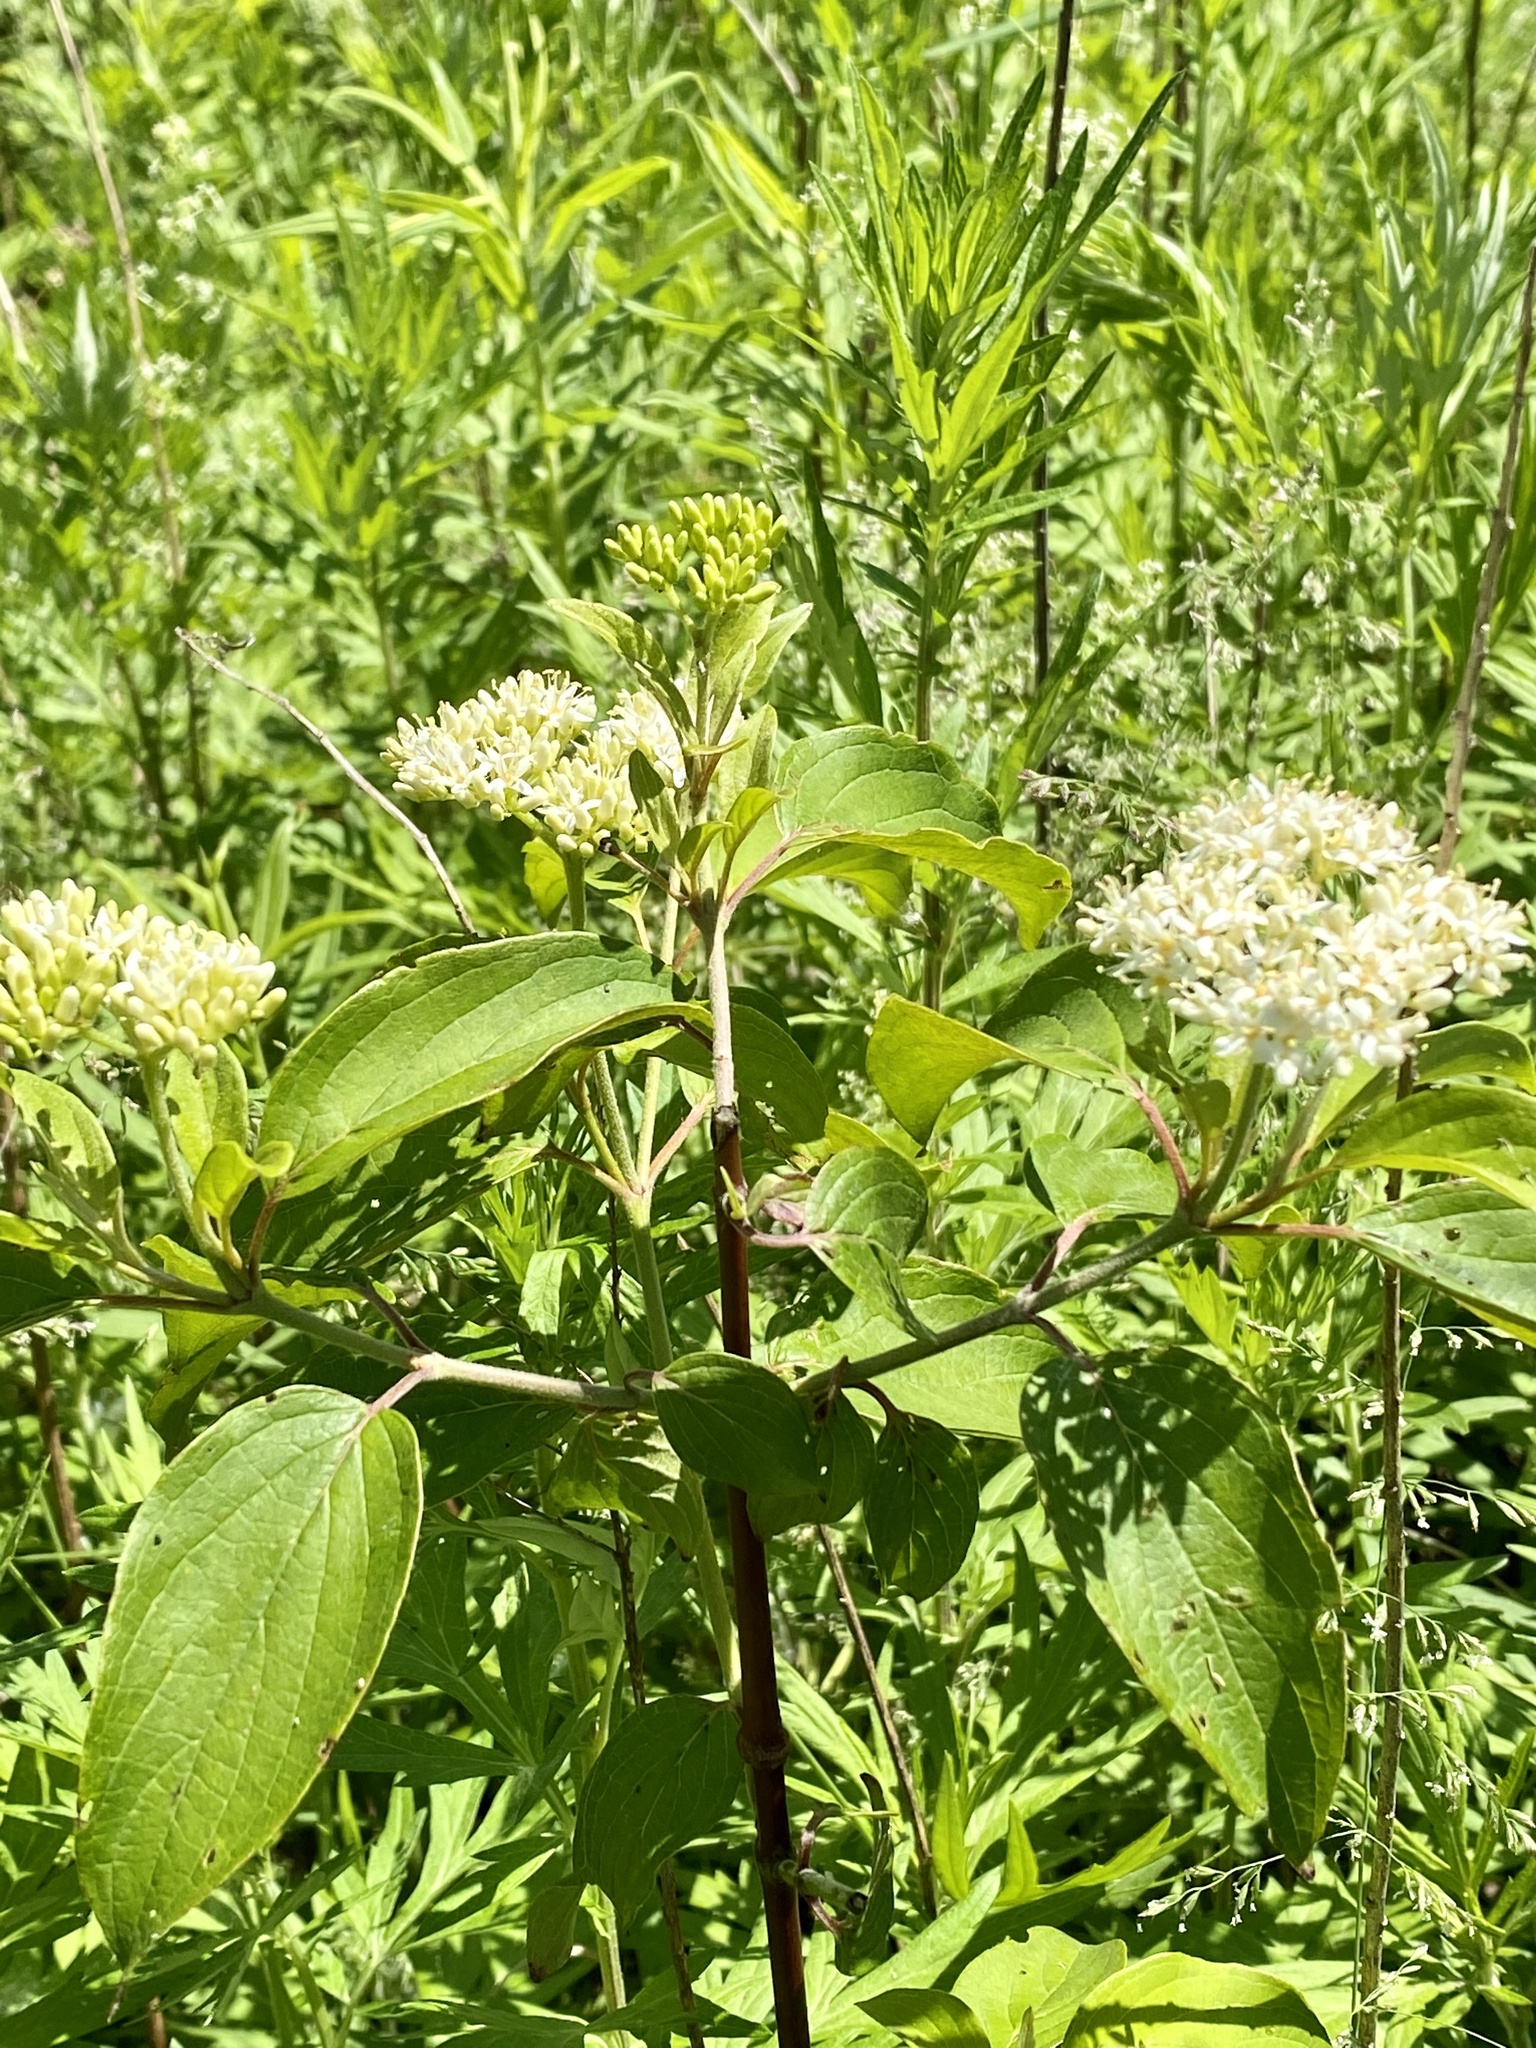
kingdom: Plantae
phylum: Tracheophyta
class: Magnoliopsida
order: Cornales
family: Cornaceae
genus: Cornus
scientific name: Cornus amomum
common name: Silky dogwood
